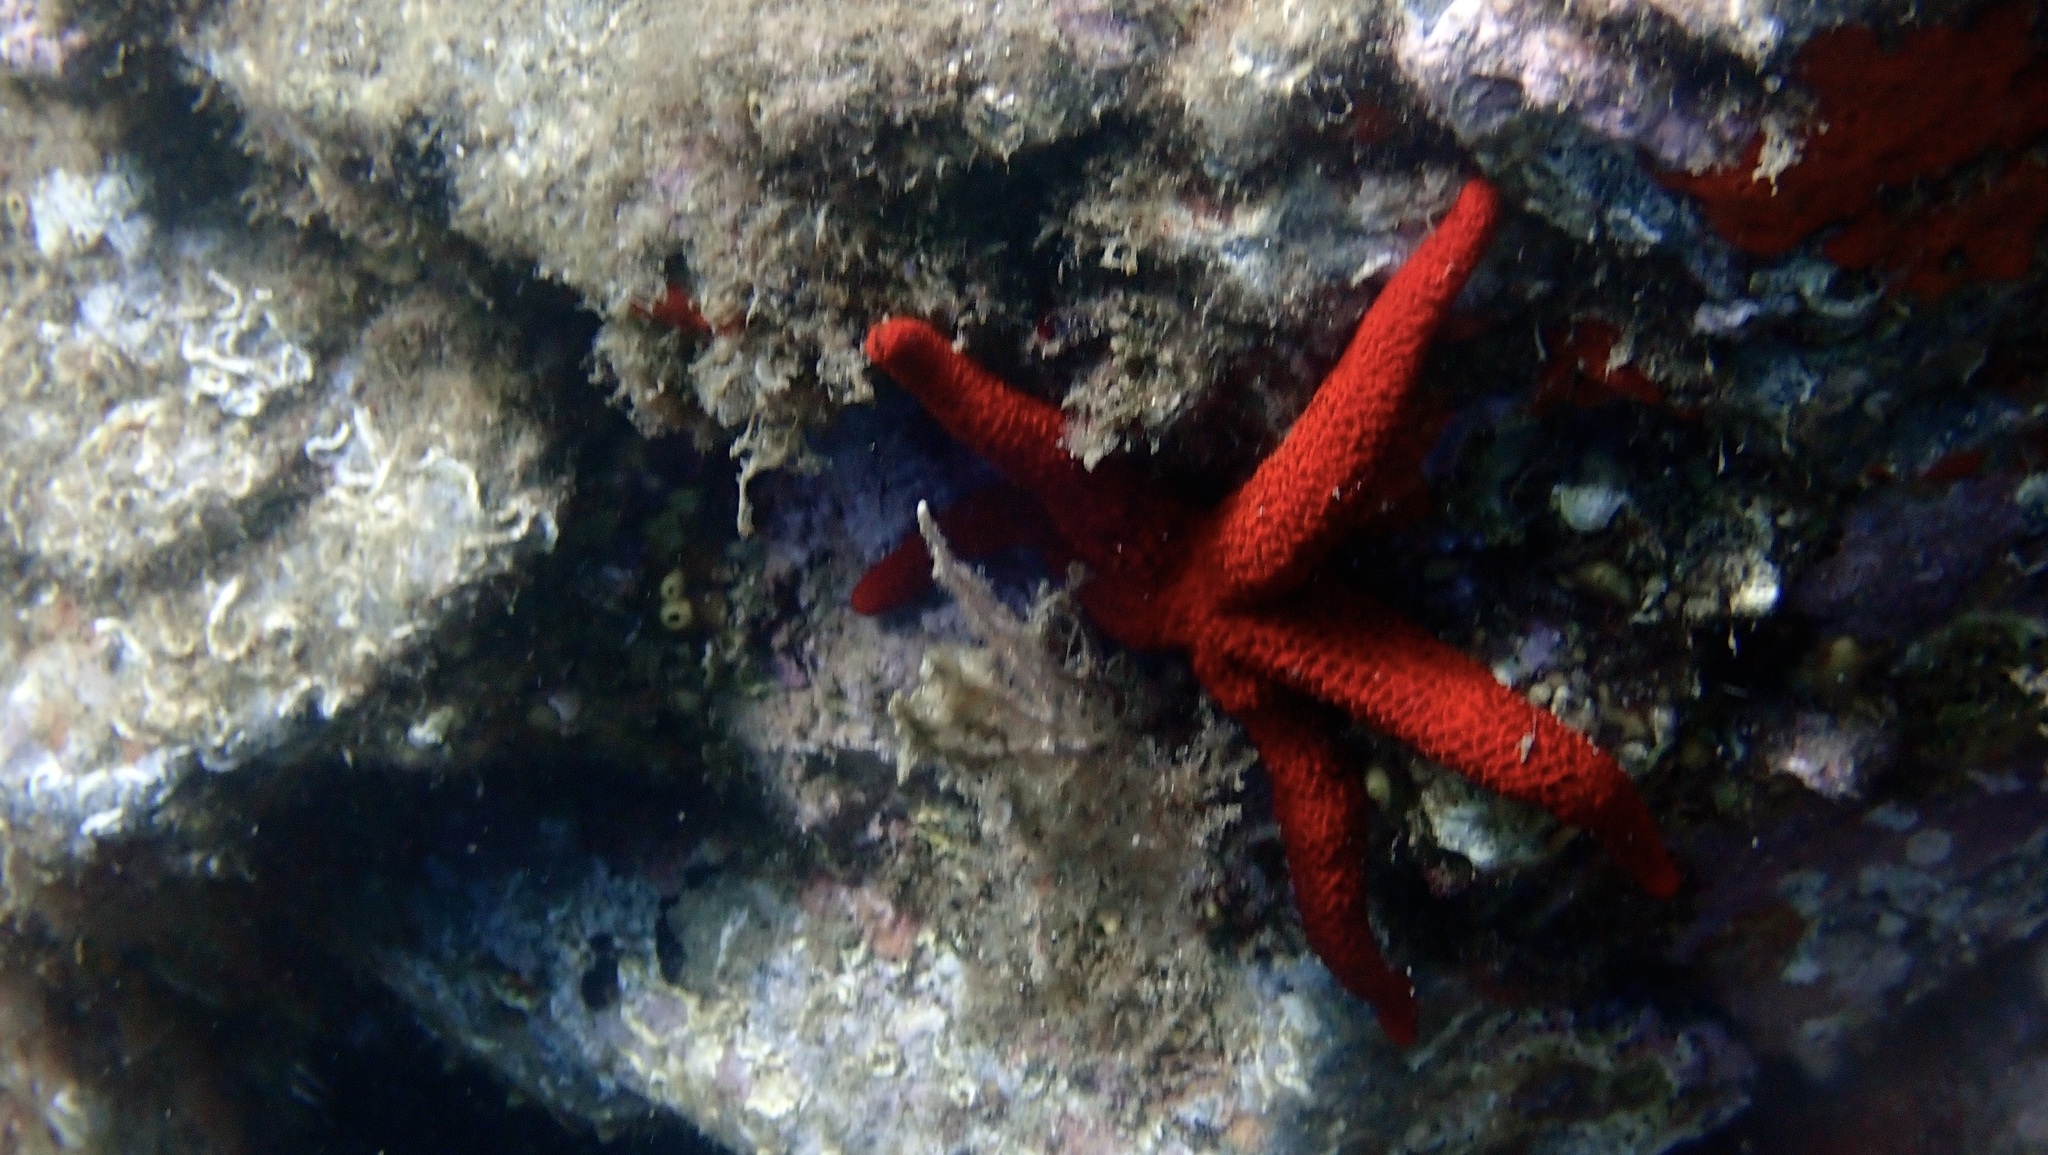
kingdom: Animalia
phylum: Echinodermata
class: Asteroidea
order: Spinulosida
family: Echinasteridae
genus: Echinaster
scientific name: Echinaster sepositus
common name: Red starfish
